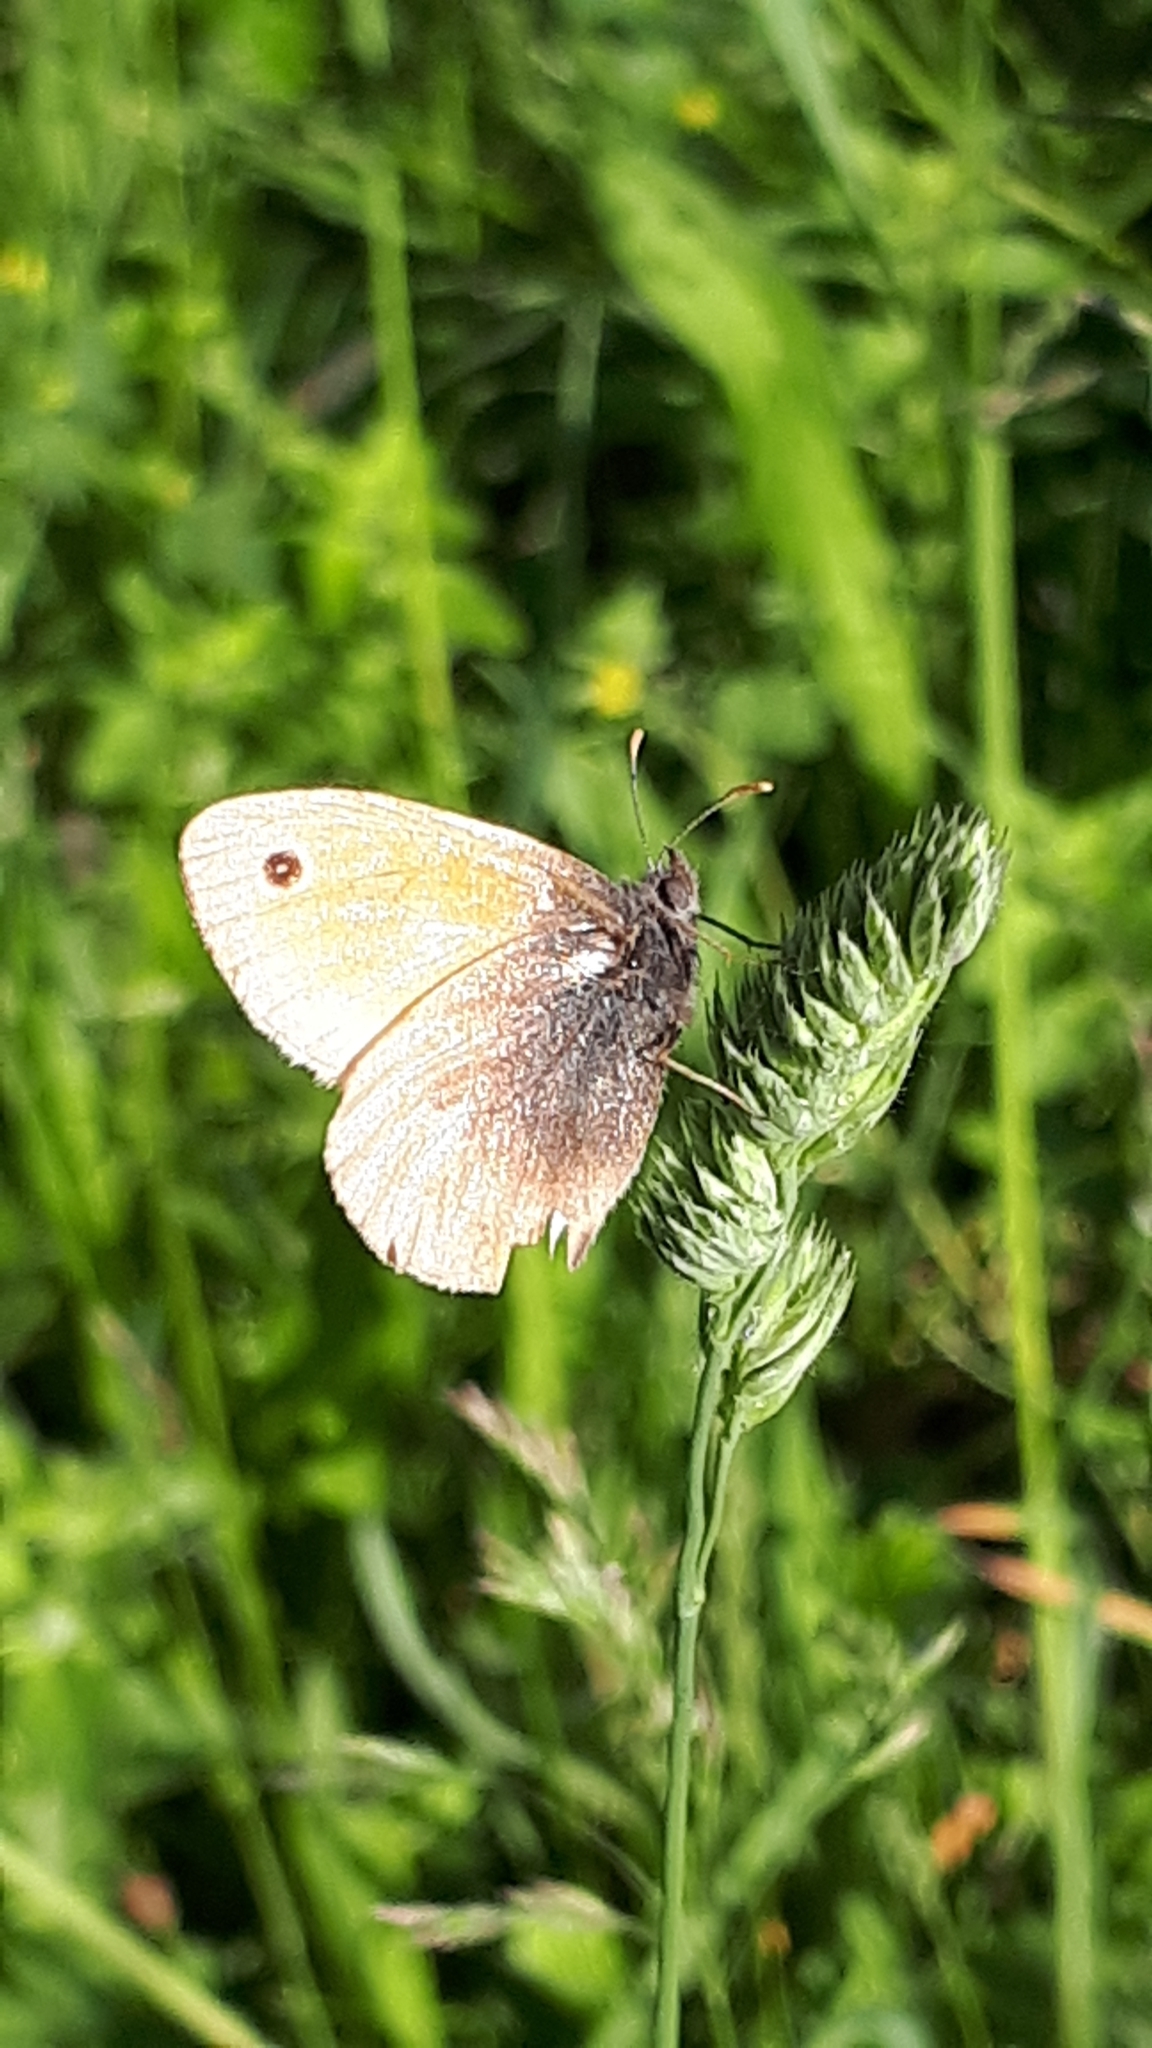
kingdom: Animalia
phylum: Arthropoda
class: Insecta
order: Lepidoptera
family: Nymphalidae
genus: Coenonympha
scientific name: Coenonympha pamphilus
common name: Small heath
